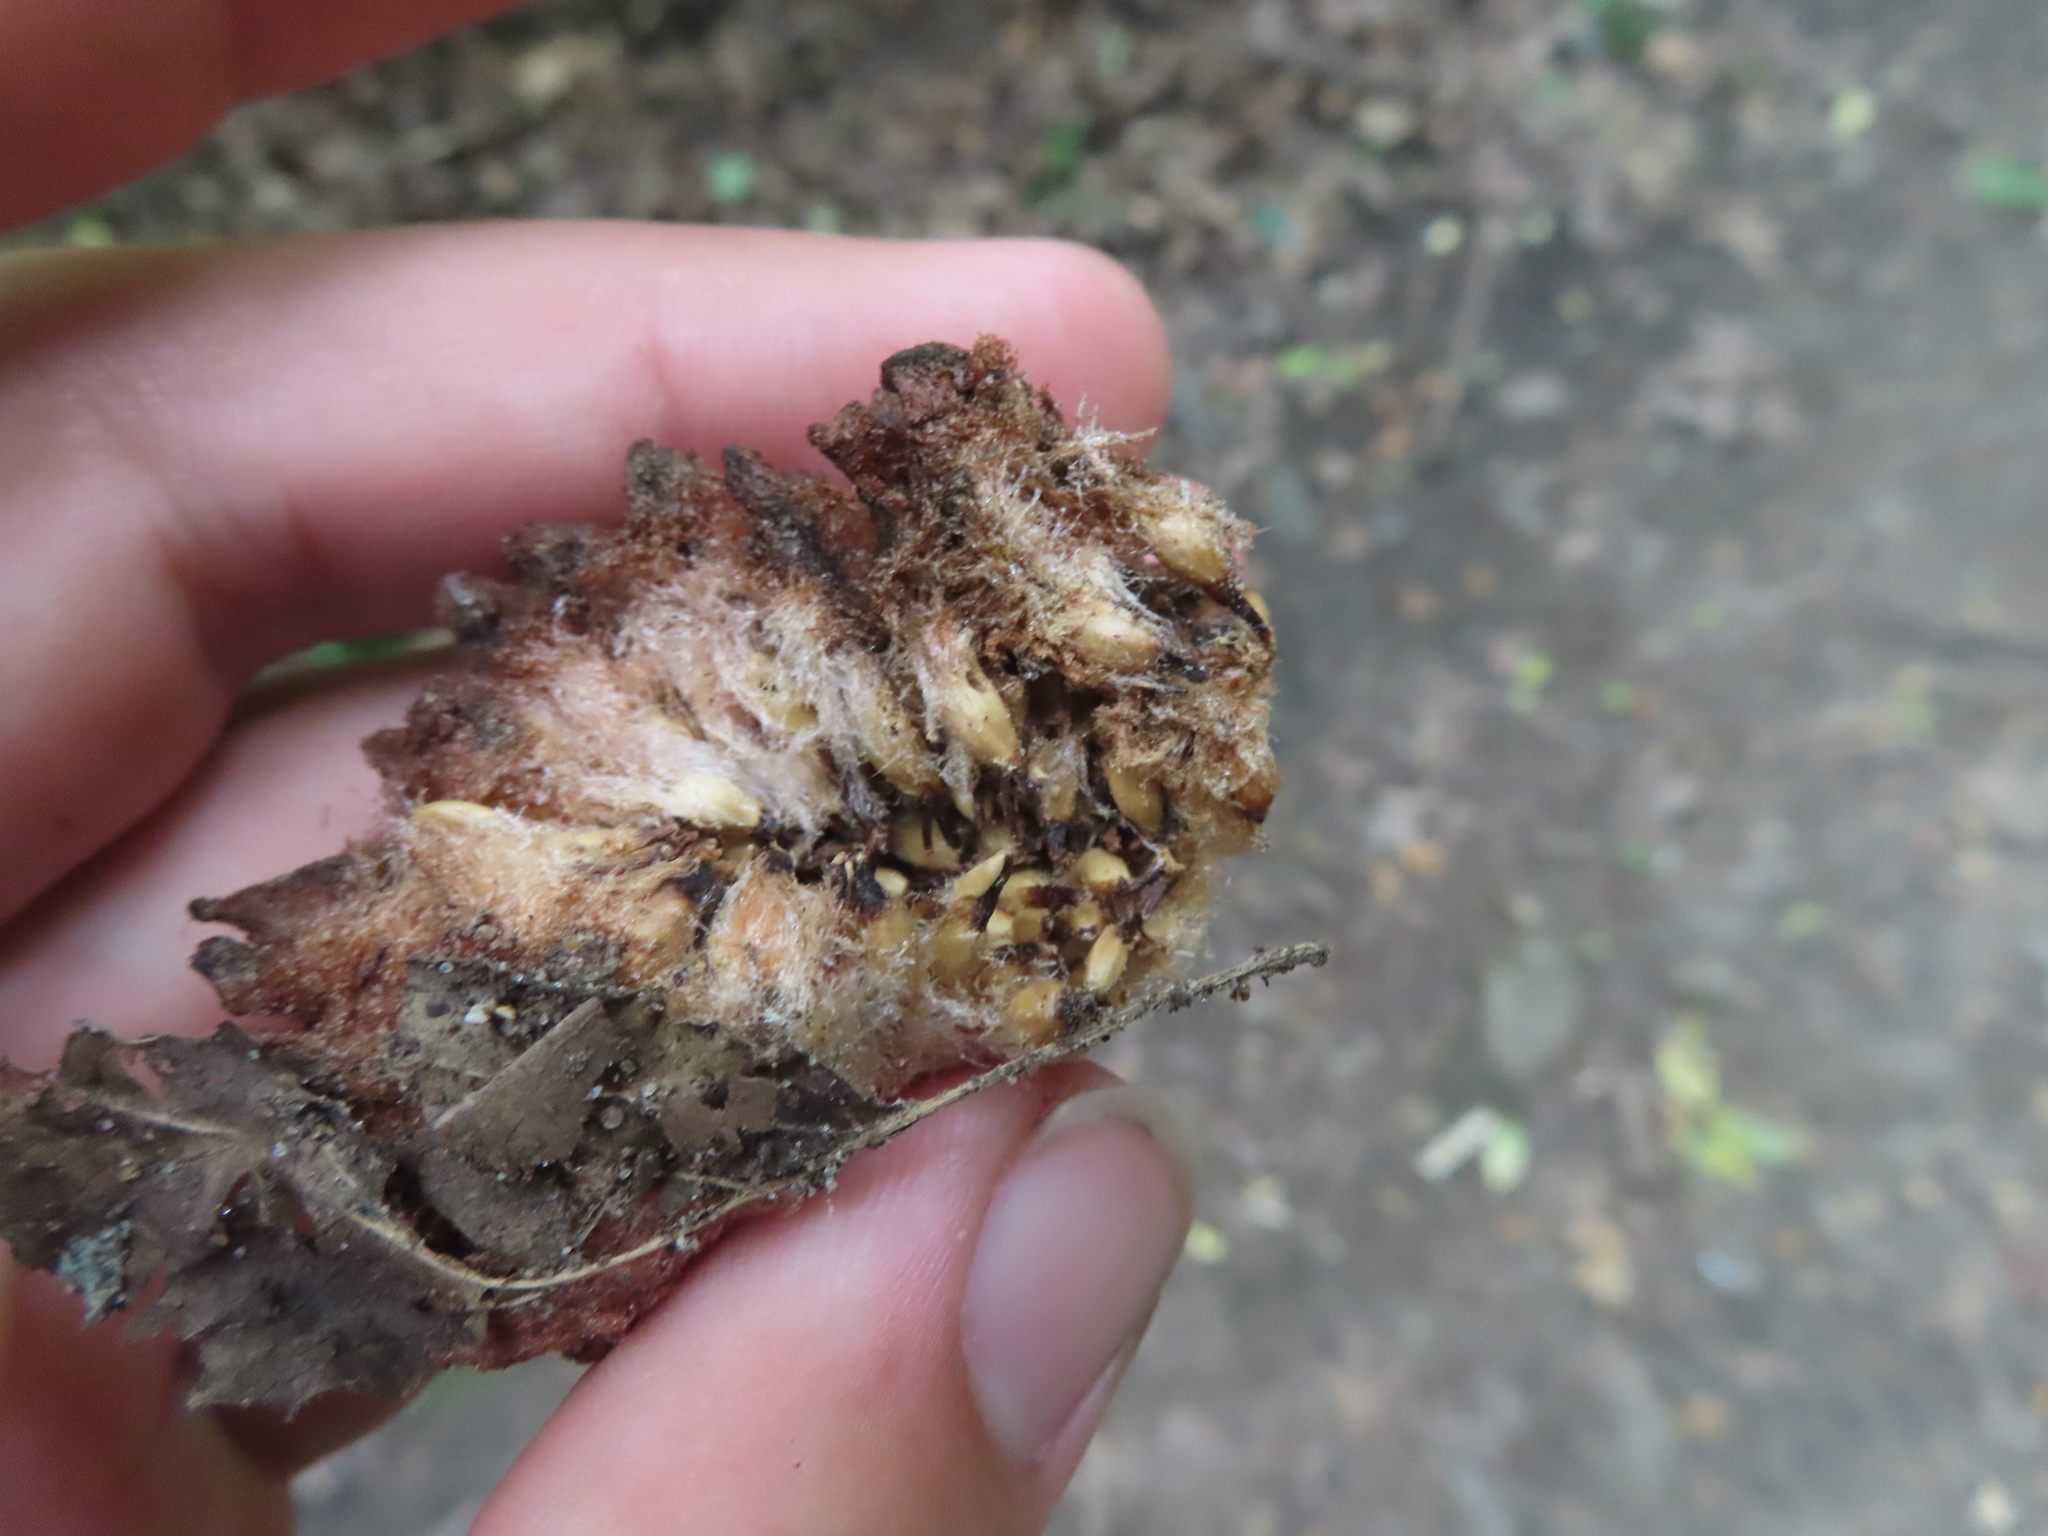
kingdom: Animalia
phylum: Arthropoda
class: Insecta
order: Hymenoptera
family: Cynipidae
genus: Callirhytis
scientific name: Callirhytis
